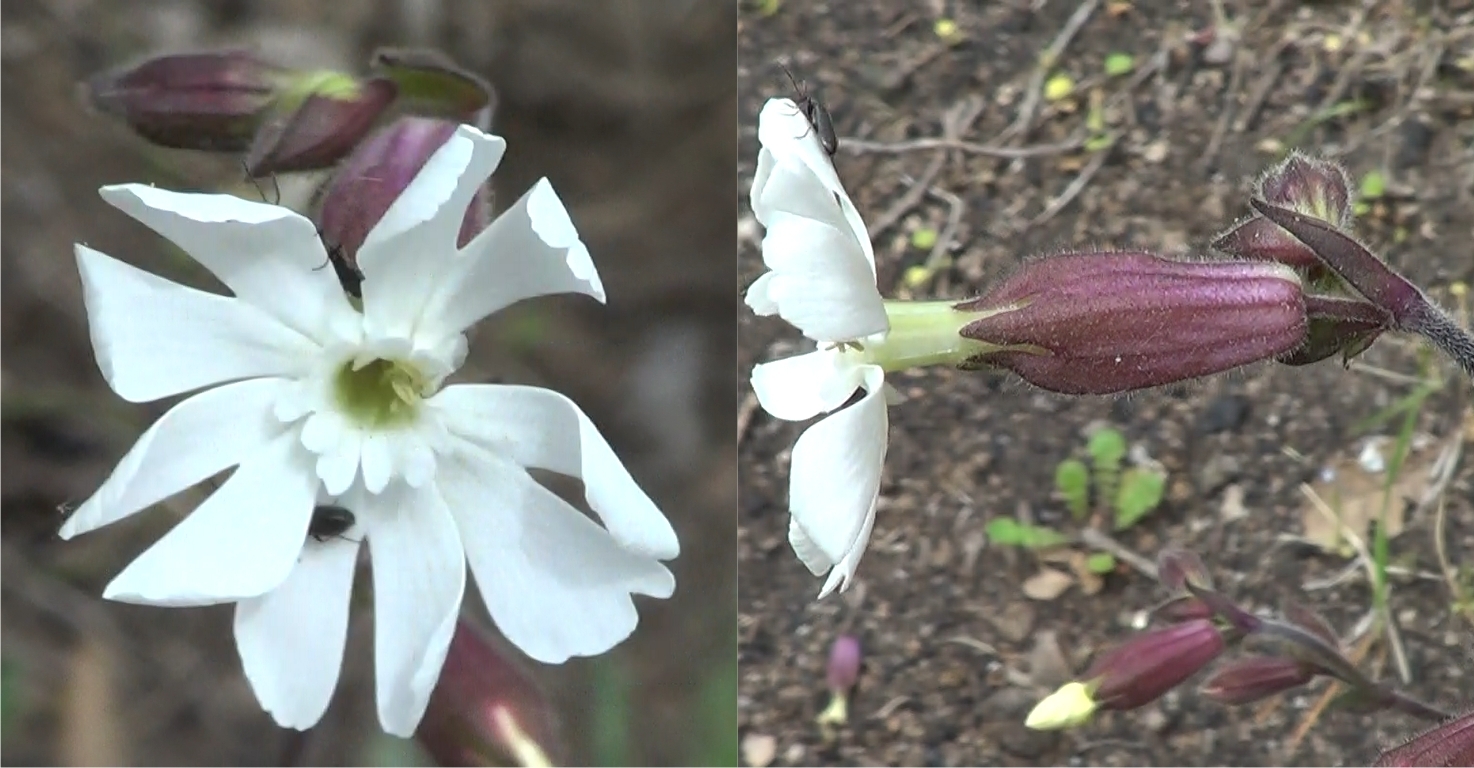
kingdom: Plantae
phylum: Tracheophyta
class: Magnoliopsida
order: Caryophyllales
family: Caryophyllaceae
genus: Silene
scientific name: Silene latifolia
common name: White campion
